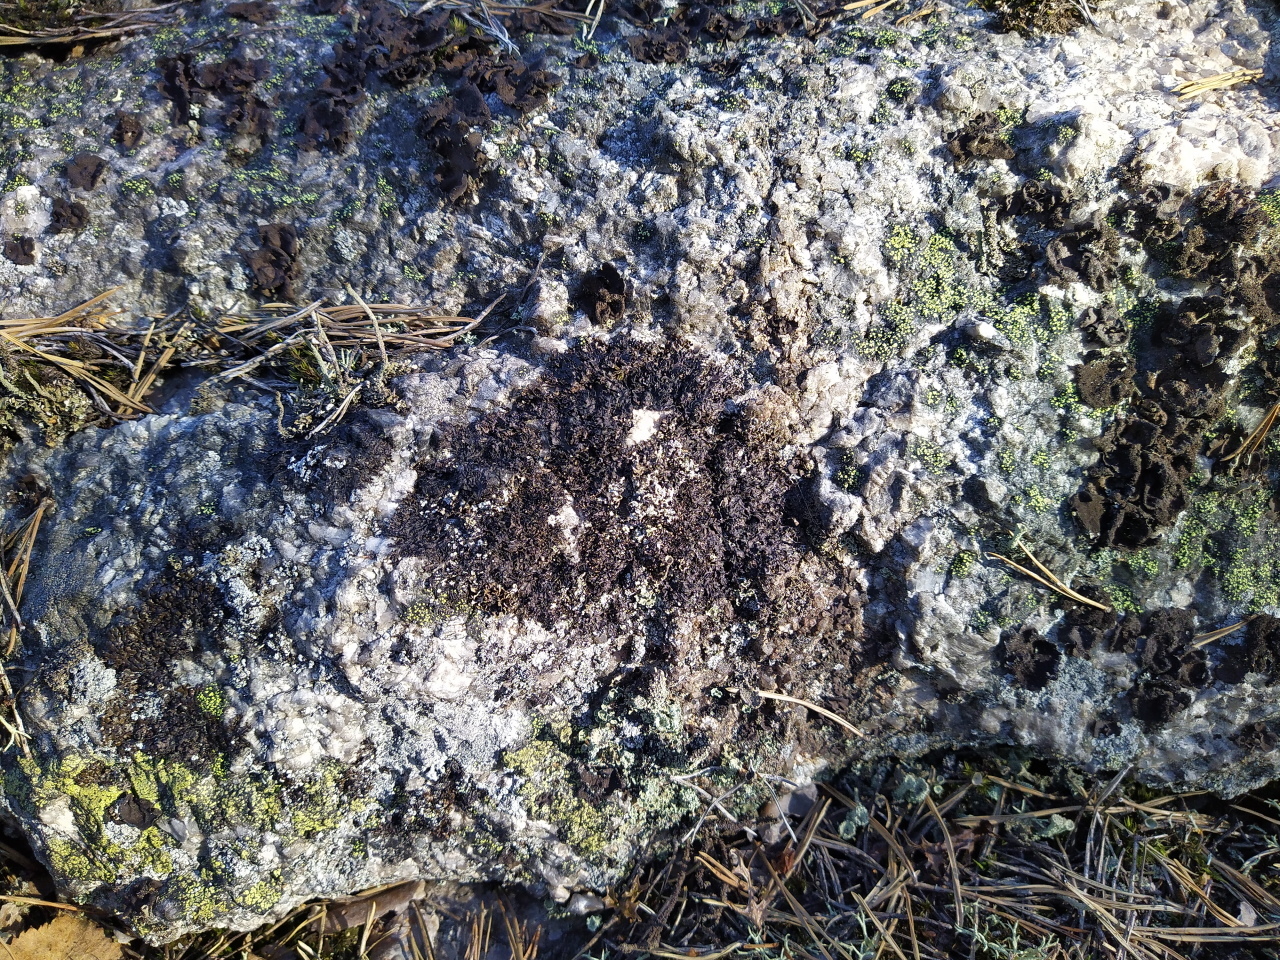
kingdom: Fungi
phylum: Ascomycota
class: Lecanoromycetes
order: Lecanorales
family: Parmeliaceae
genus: Melanelia
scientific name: Melanelia hepatizon
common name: Rimmed camouflage lichen
